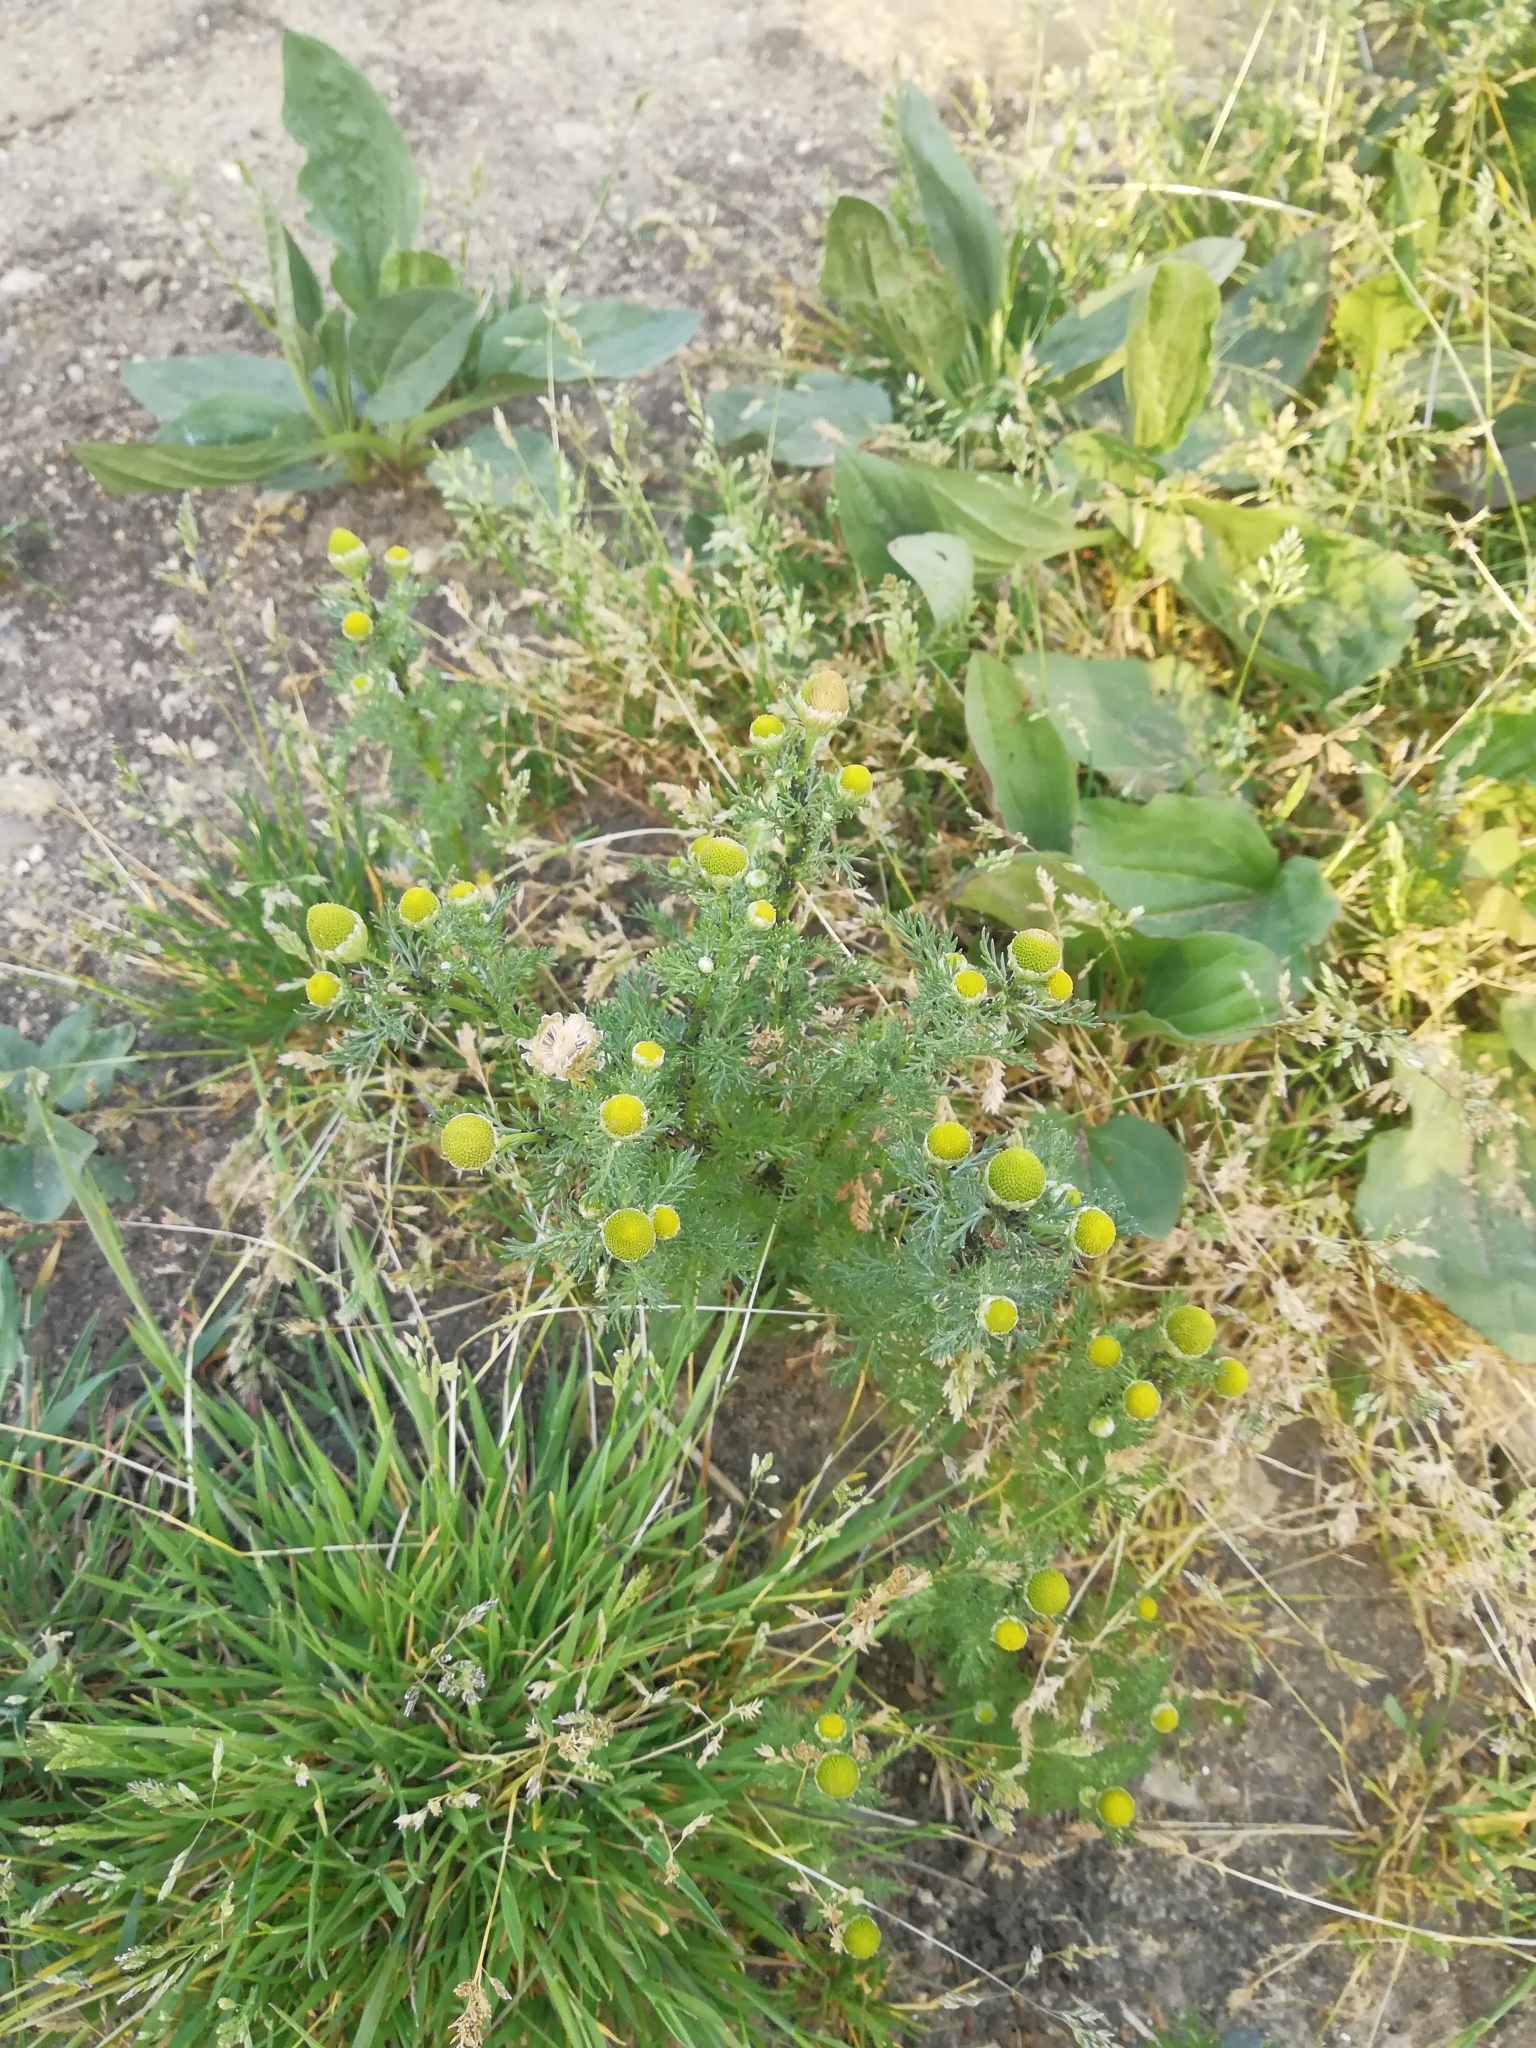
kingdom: Plantae
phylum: Tracheophyta
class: Magnoliopsida
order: Asterales
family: Asteraceae
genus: Matricaria
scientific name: Matricaria discoidea
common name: Disc mayweed
